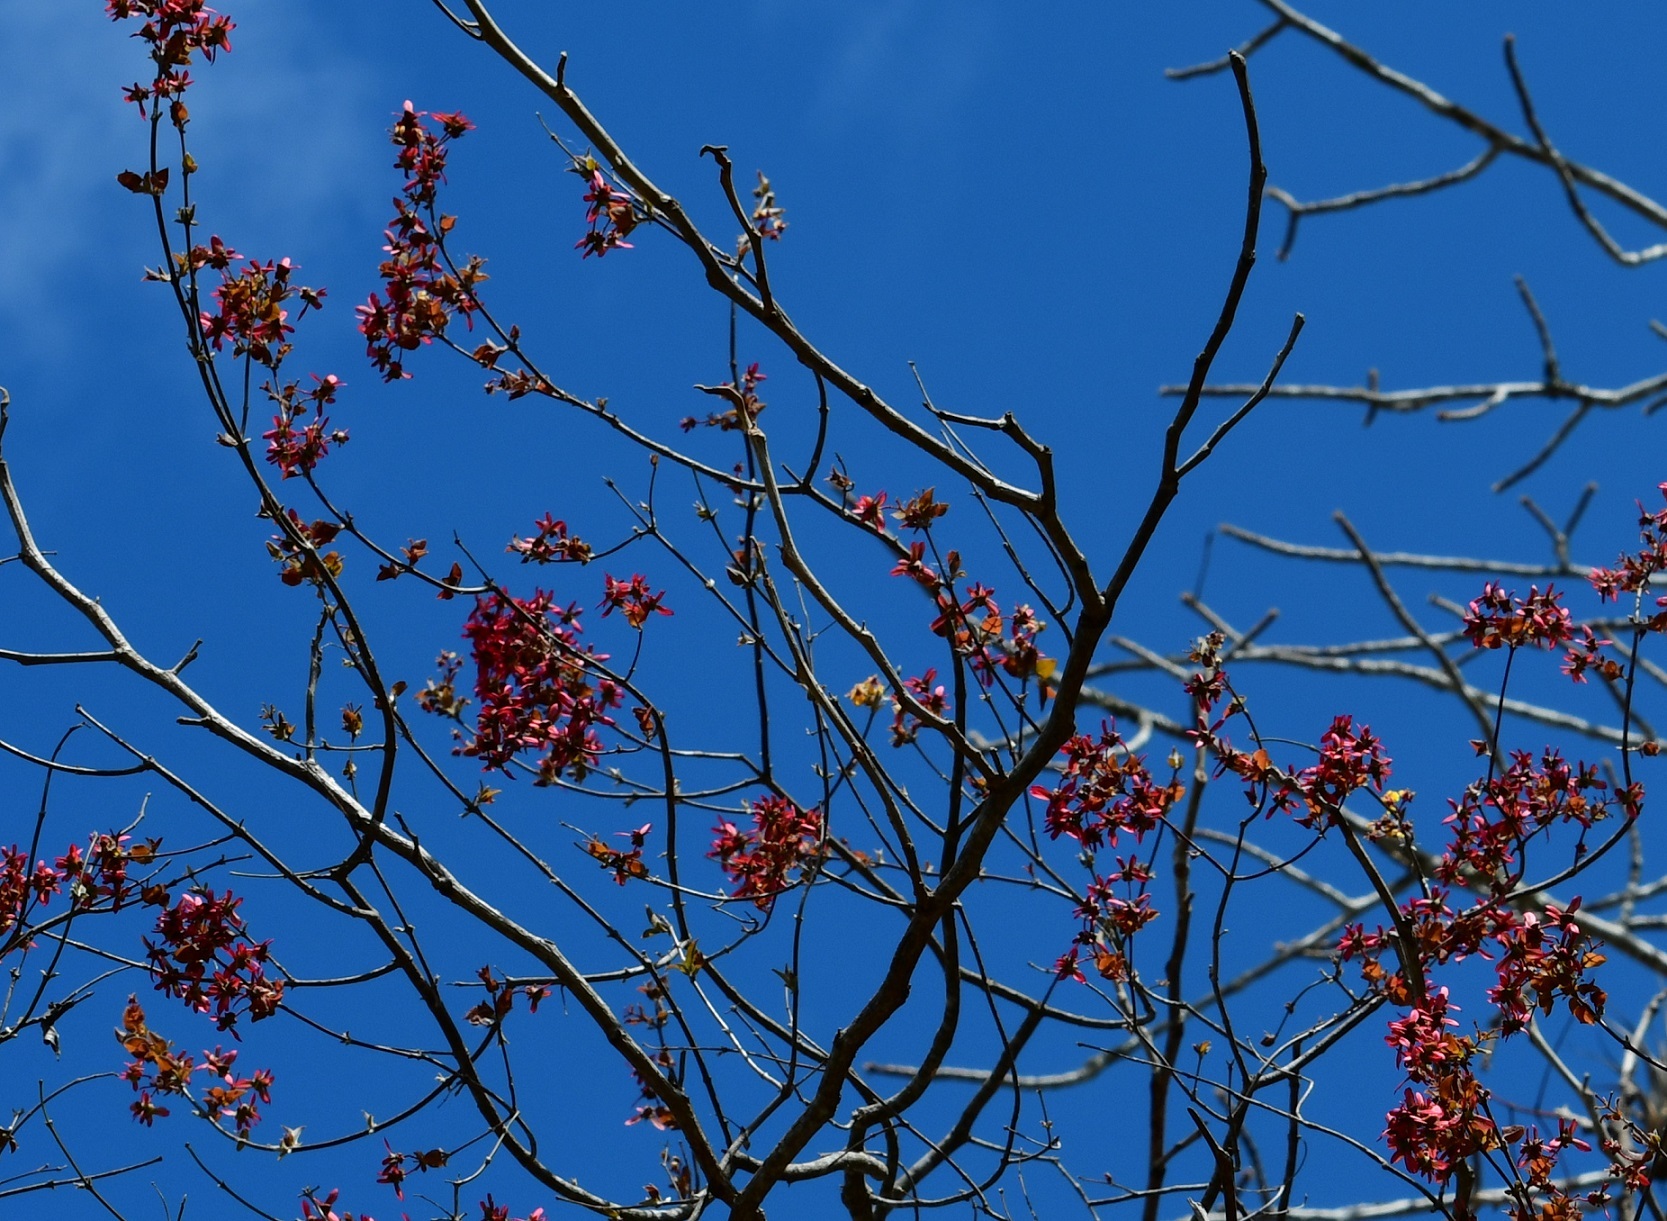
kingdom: Plantae
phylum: Tracheophyta
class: Magnoliopsida
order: Malpighiales
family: Malpighiaceae
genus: Heteropterys
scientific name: Heteropterys brachiata
